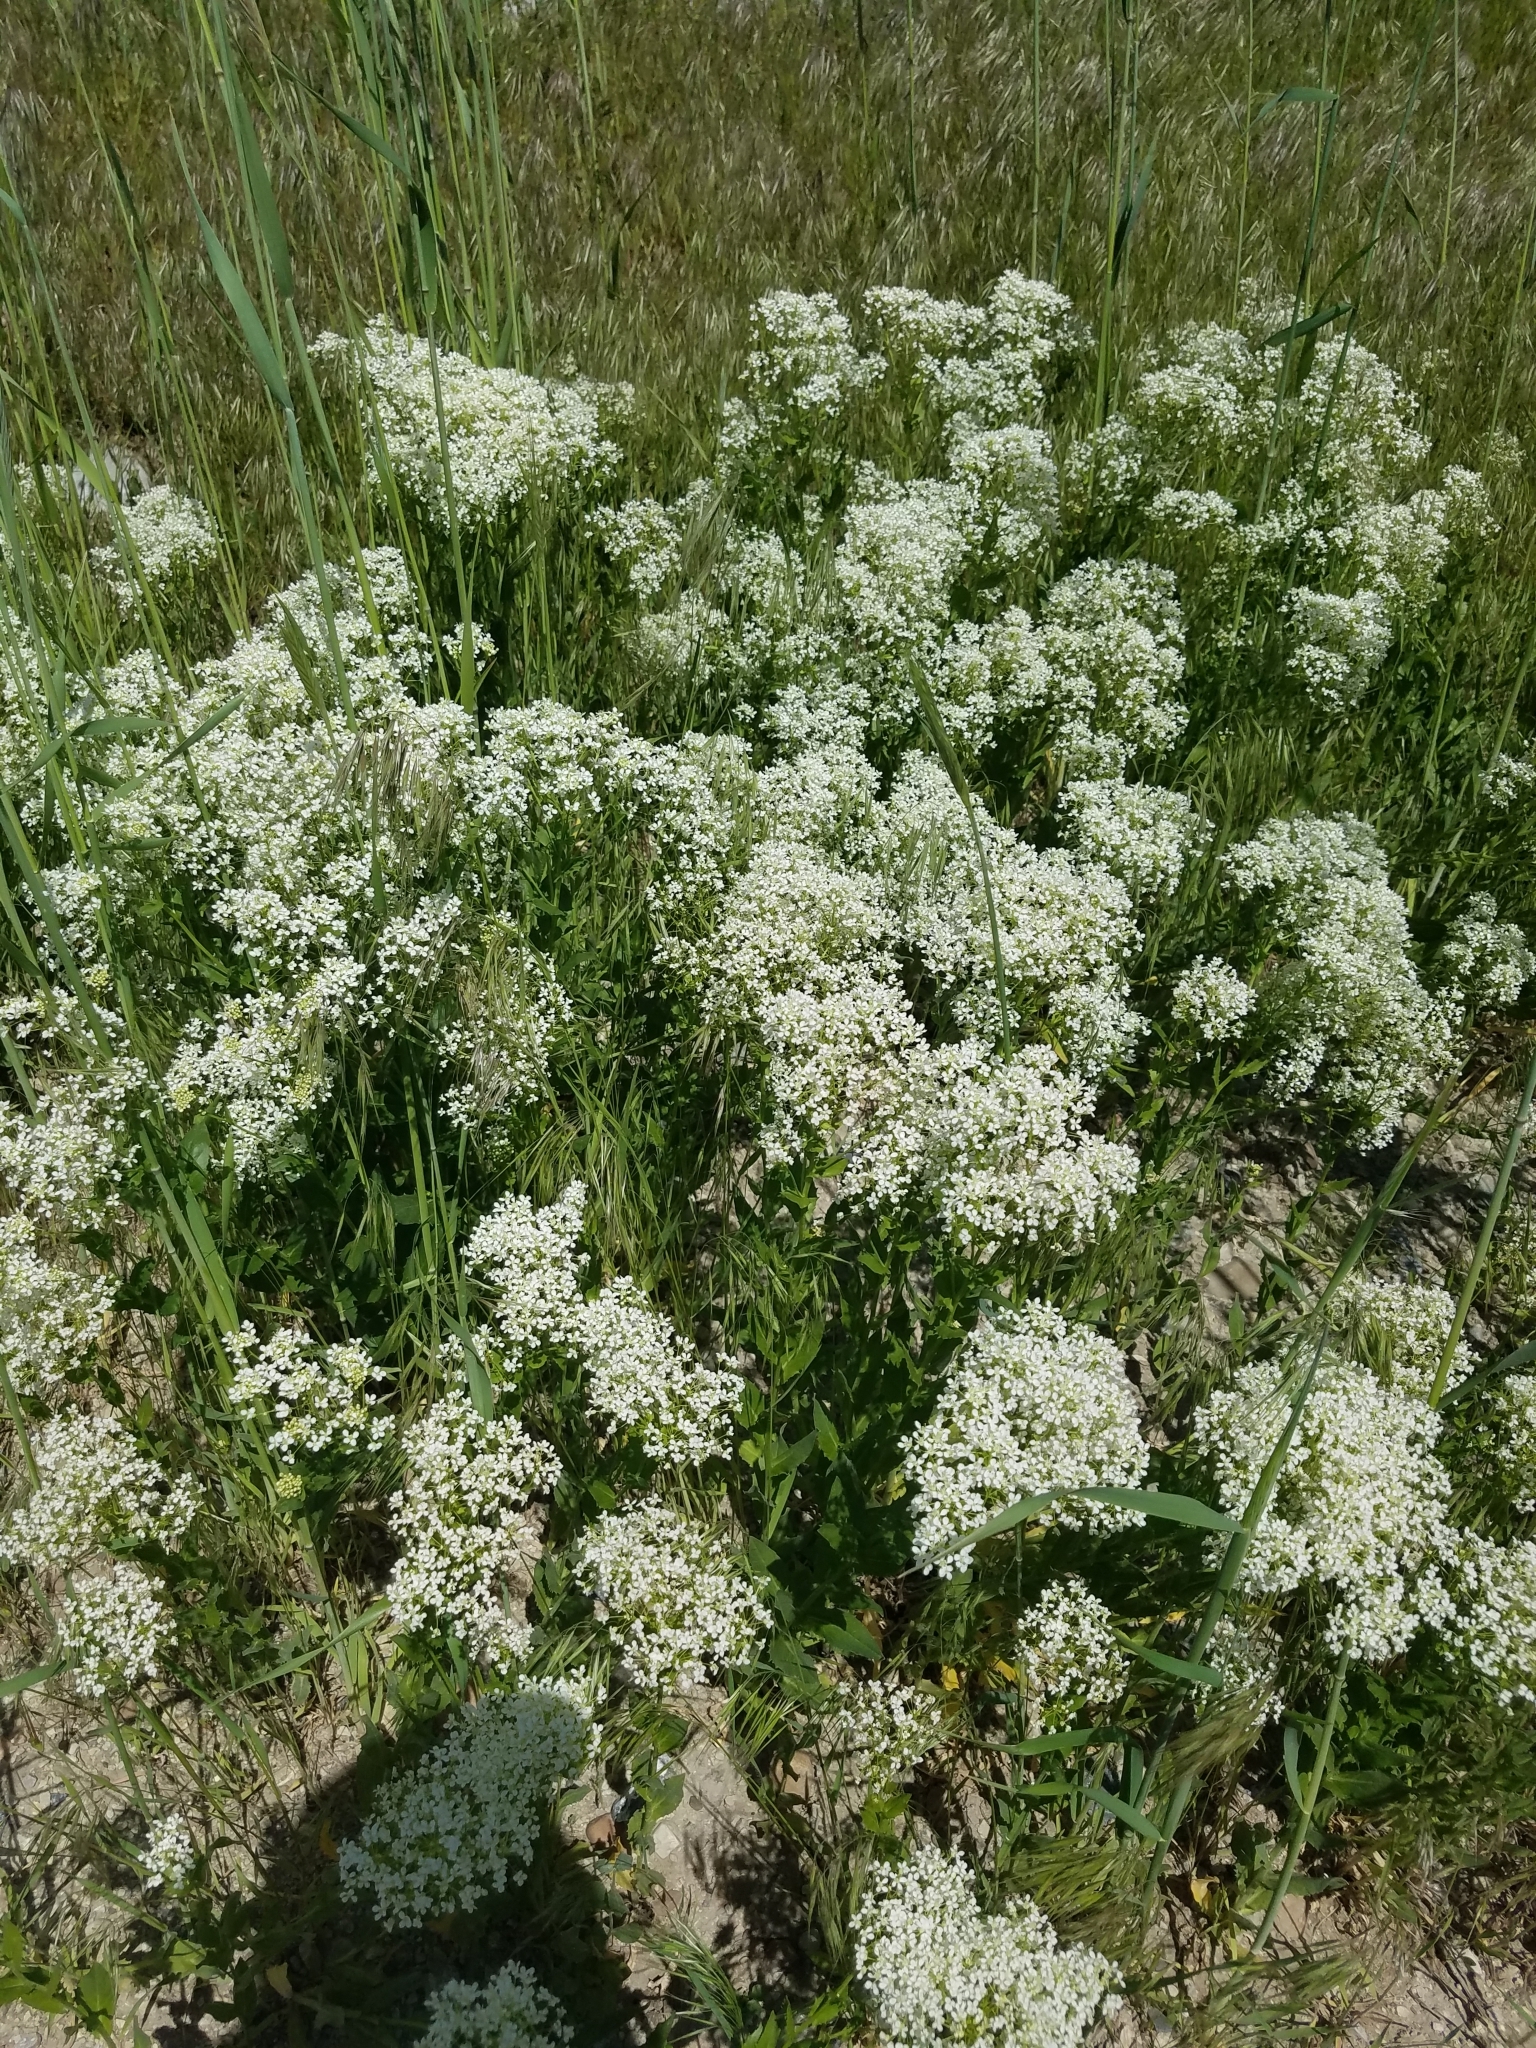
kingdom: Plantae
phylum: Tracheophyta
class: Magnoliopsida
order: Brassicales
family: Brassicaceae
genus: Lepidium
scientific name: Lepidium
